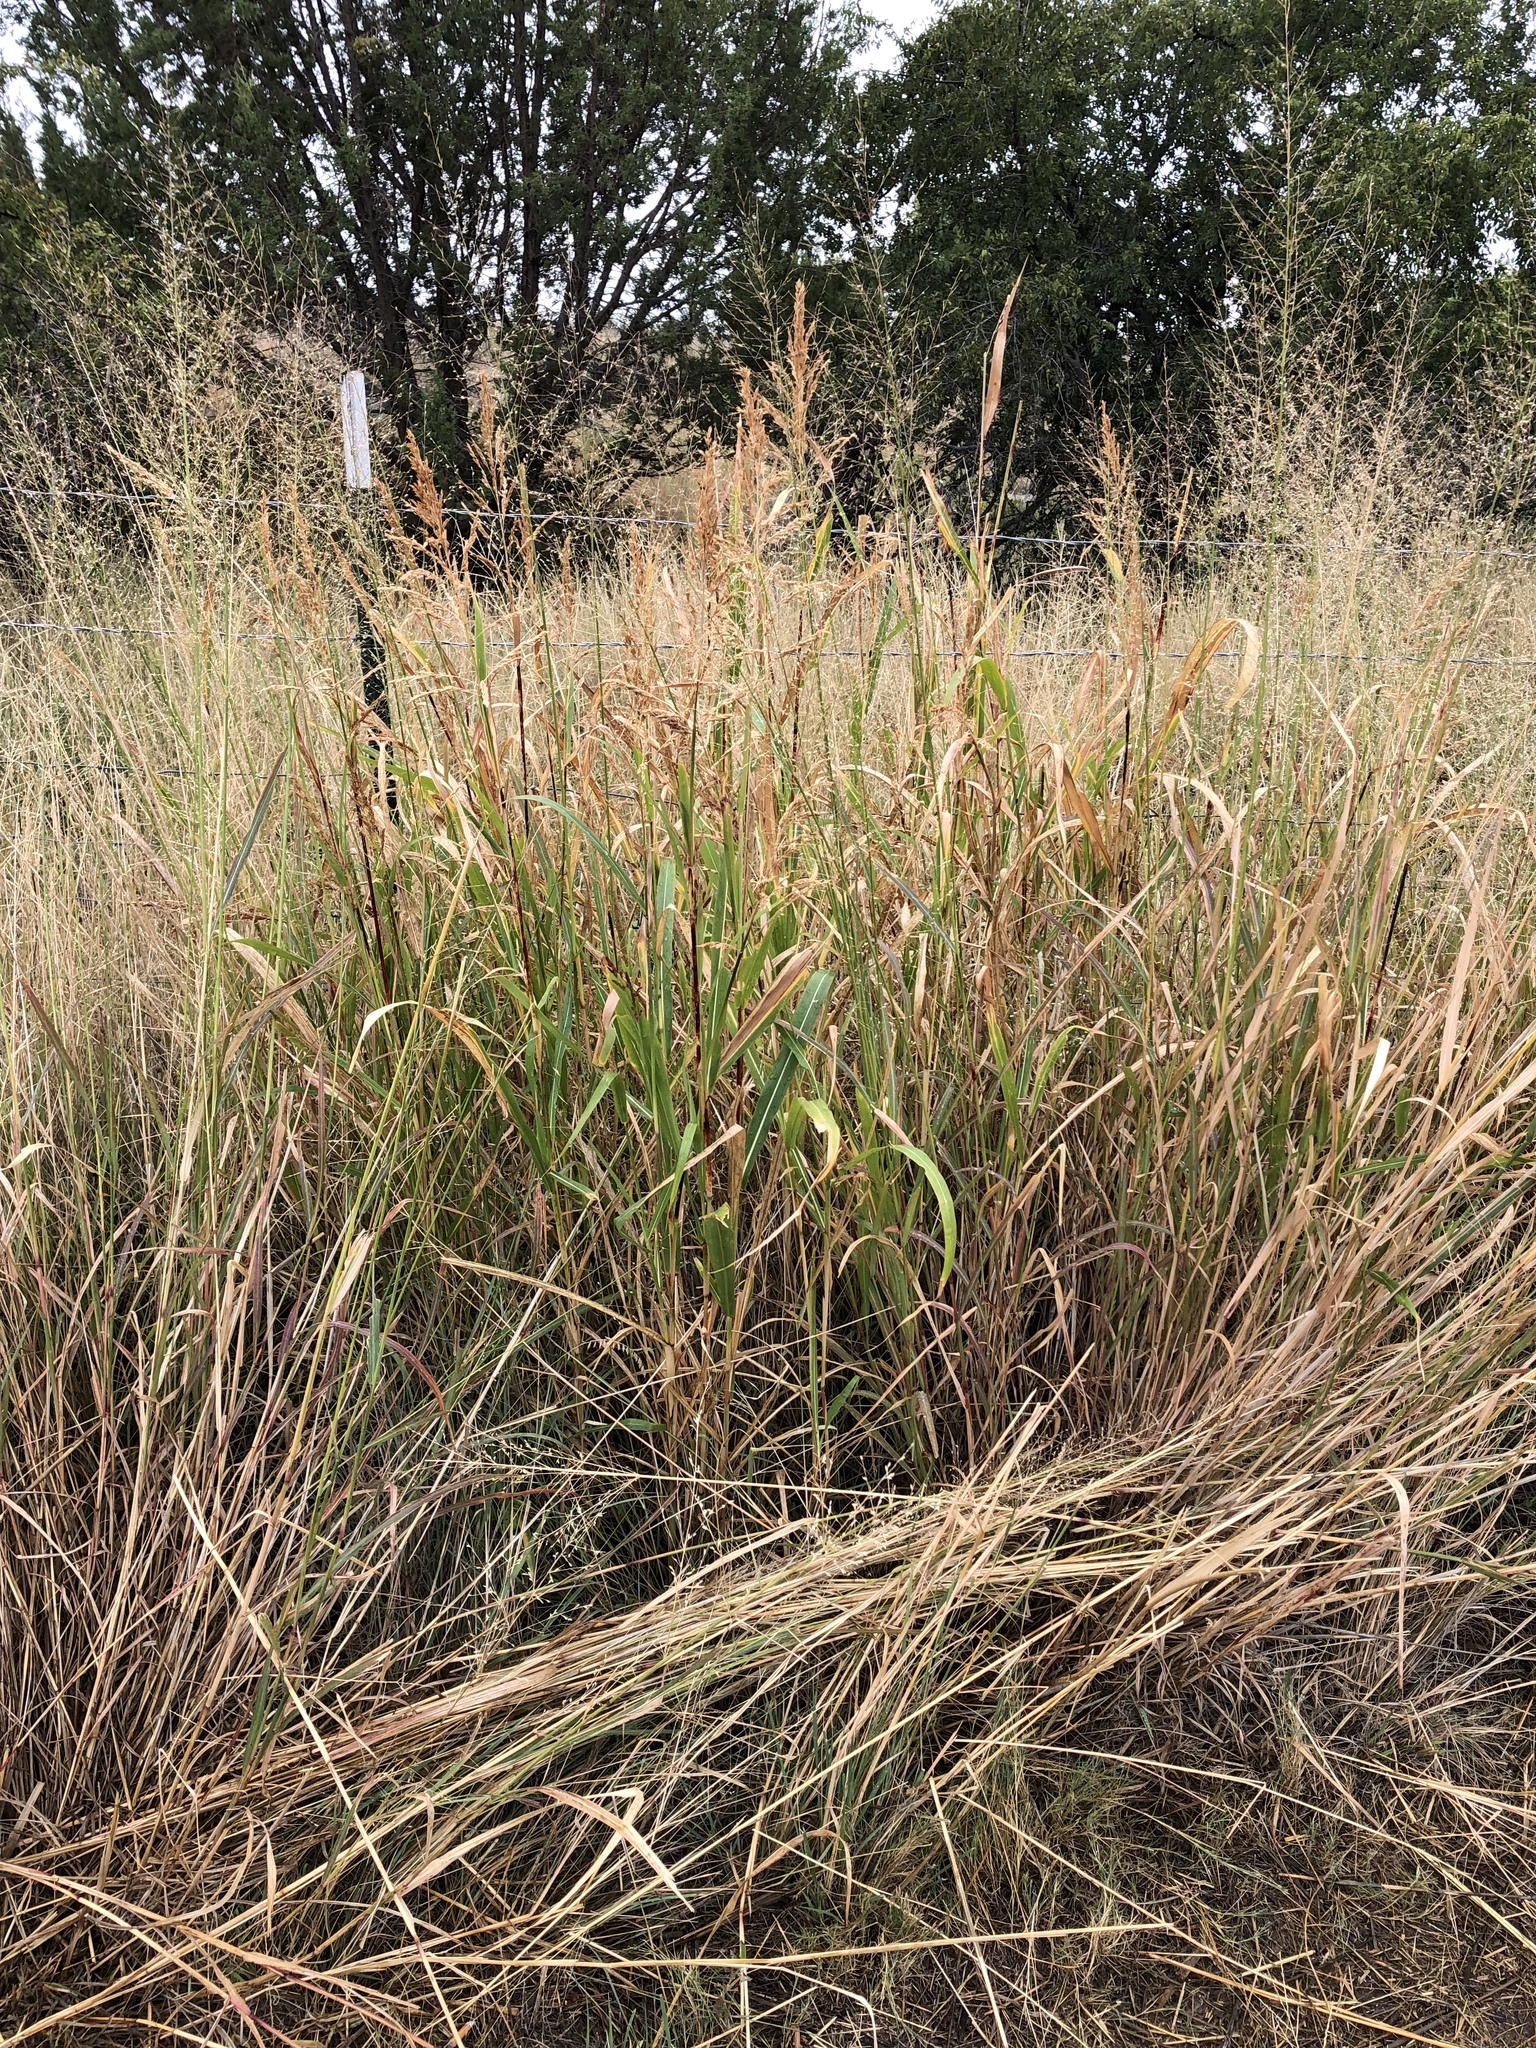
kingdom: Plantae
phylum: Tracheophyta
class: Liliopsida
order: Poales
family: Poaceae
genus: Sorghum
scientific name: Sorghum halepense
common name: Johnson-grass
